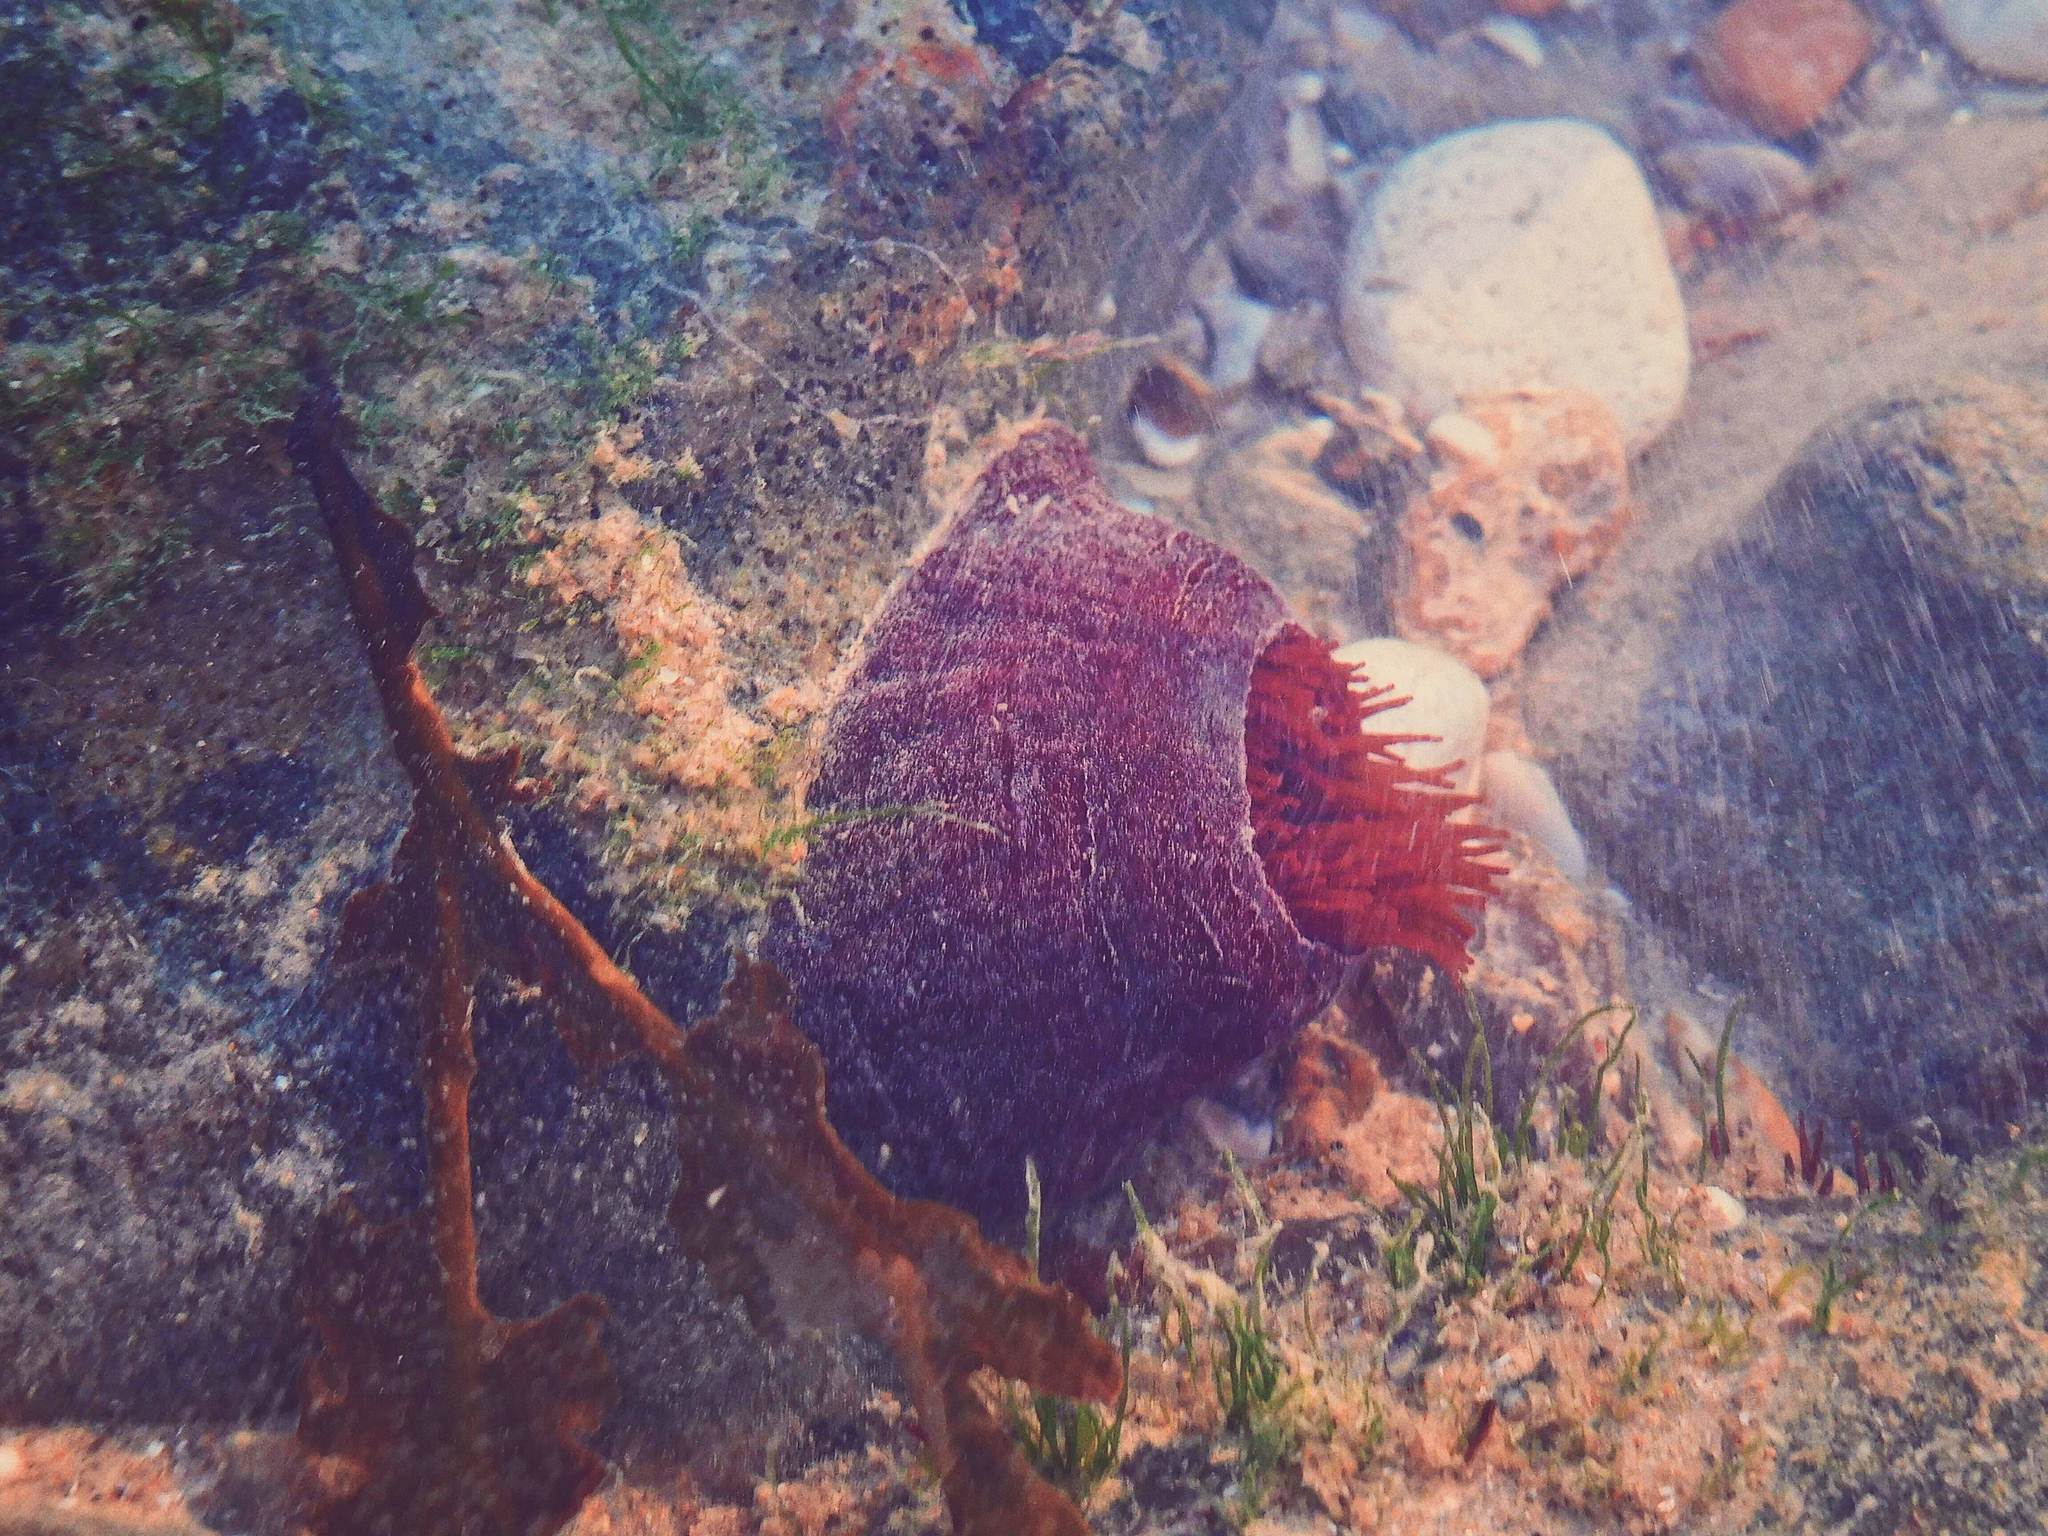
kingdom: Animalia
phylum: Cnidaria
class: Anthozoa
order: Actiniaria
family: Actiniidae
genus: Actinia
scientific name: Actinia equina
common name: Beadlet anemone
